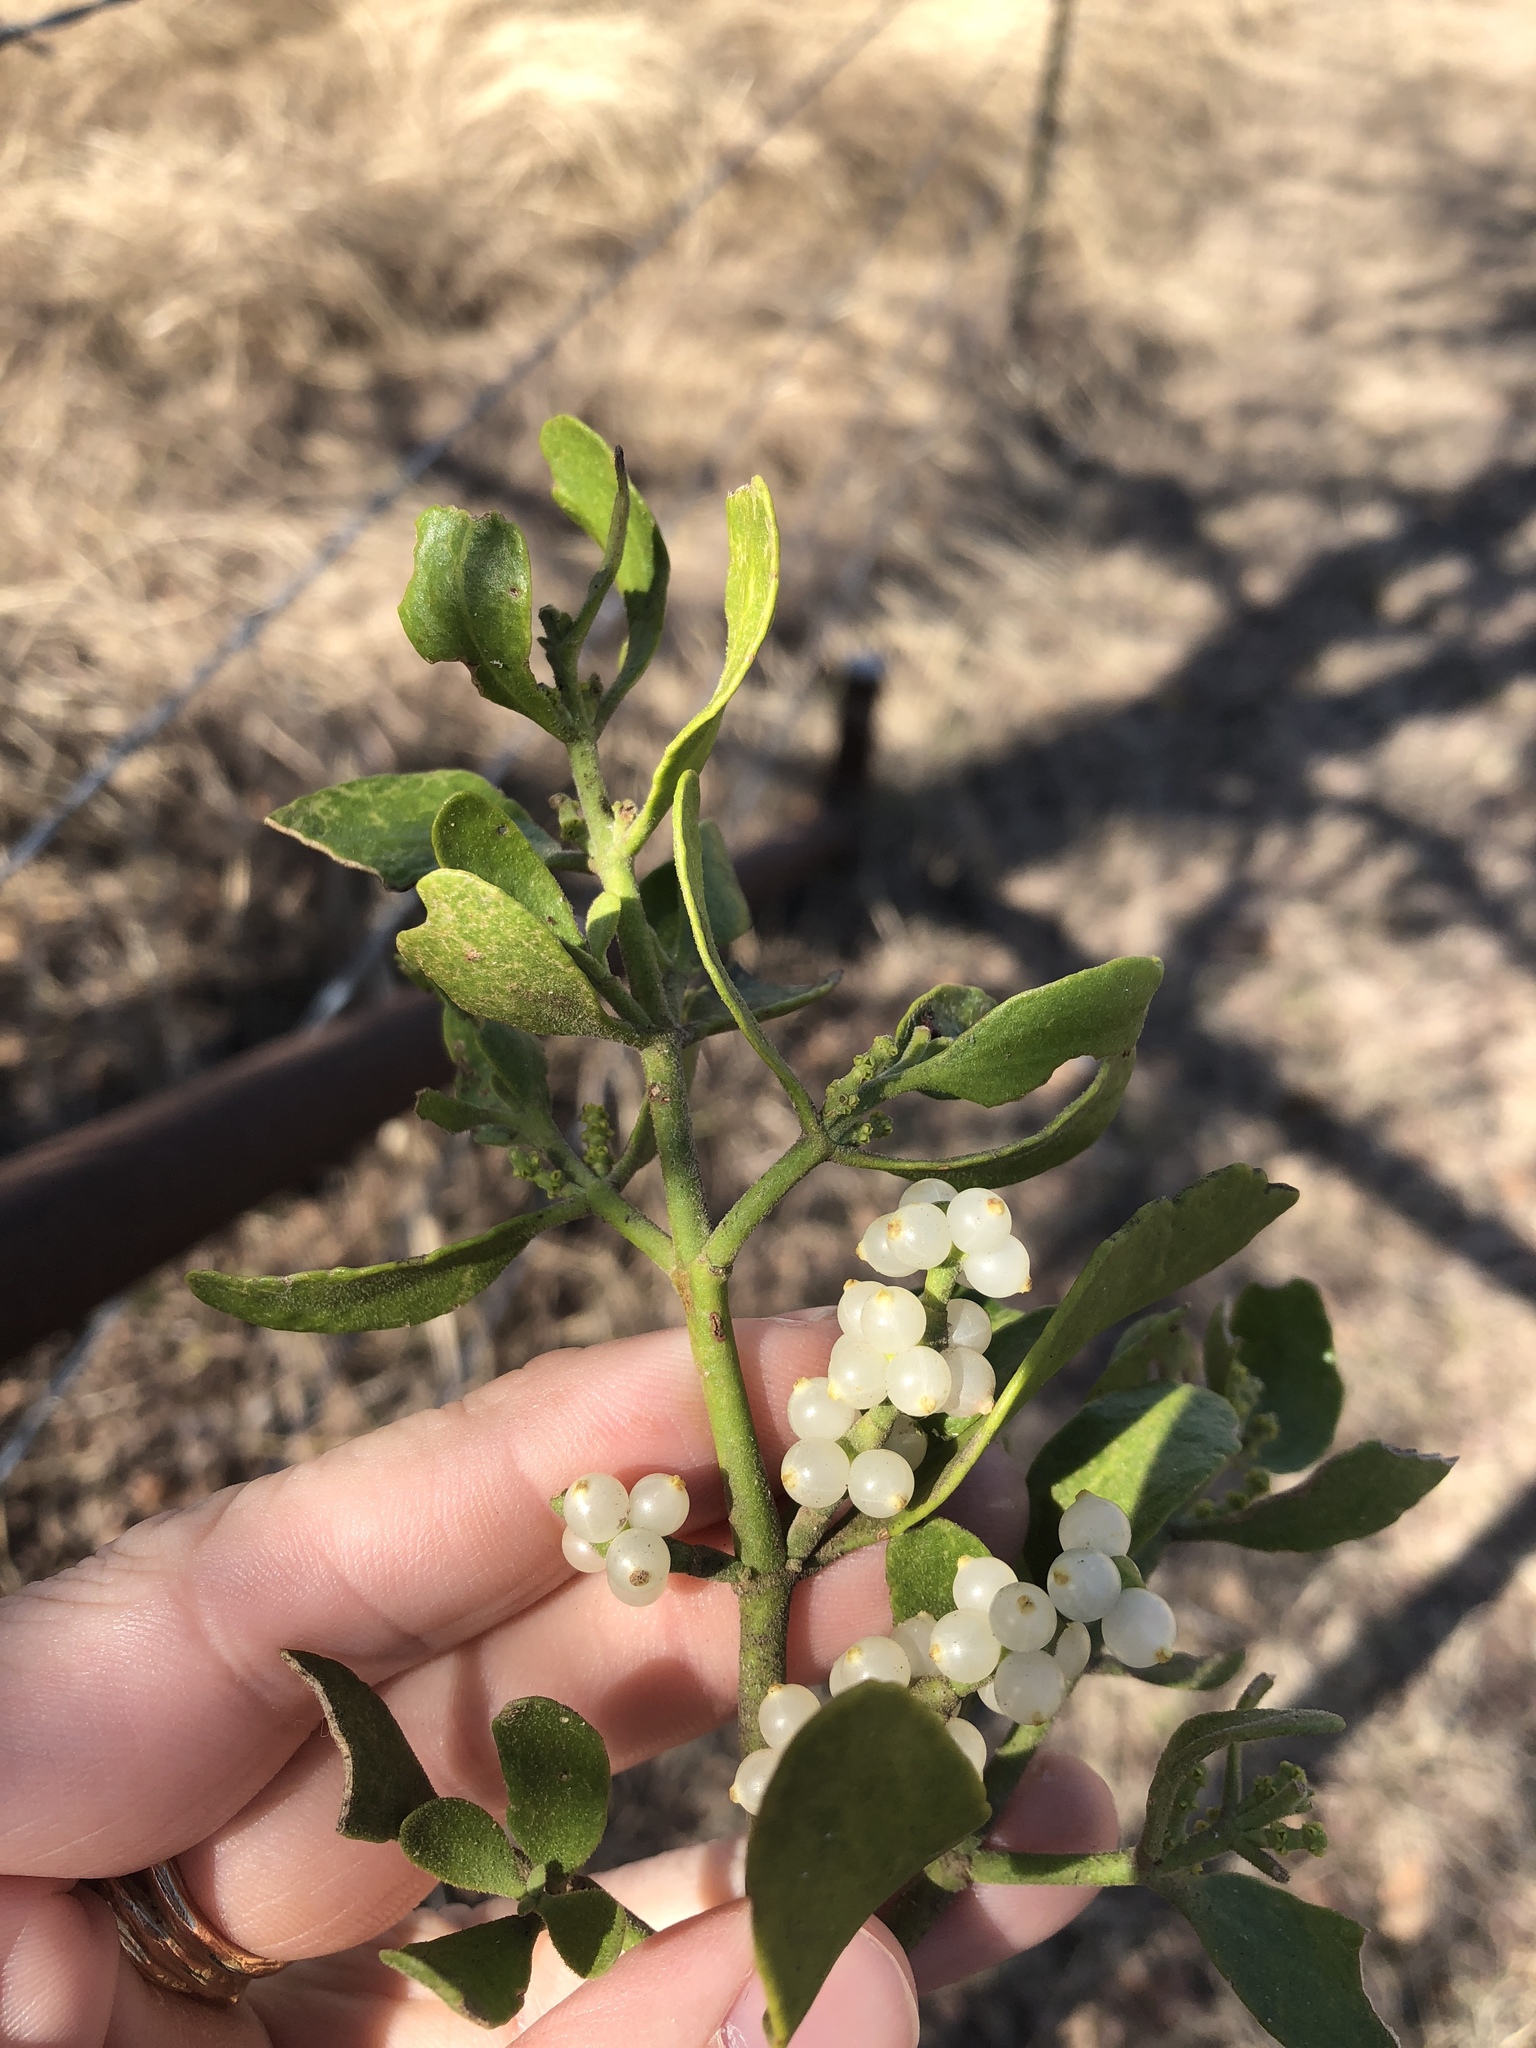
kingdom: Plantae
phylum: Tracheophyta
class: Magnoliopsida
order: Santalales
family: Viscaceae
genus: Phoradendron
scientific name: Phoradendron leucarpum
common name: Pacific mistletoe
